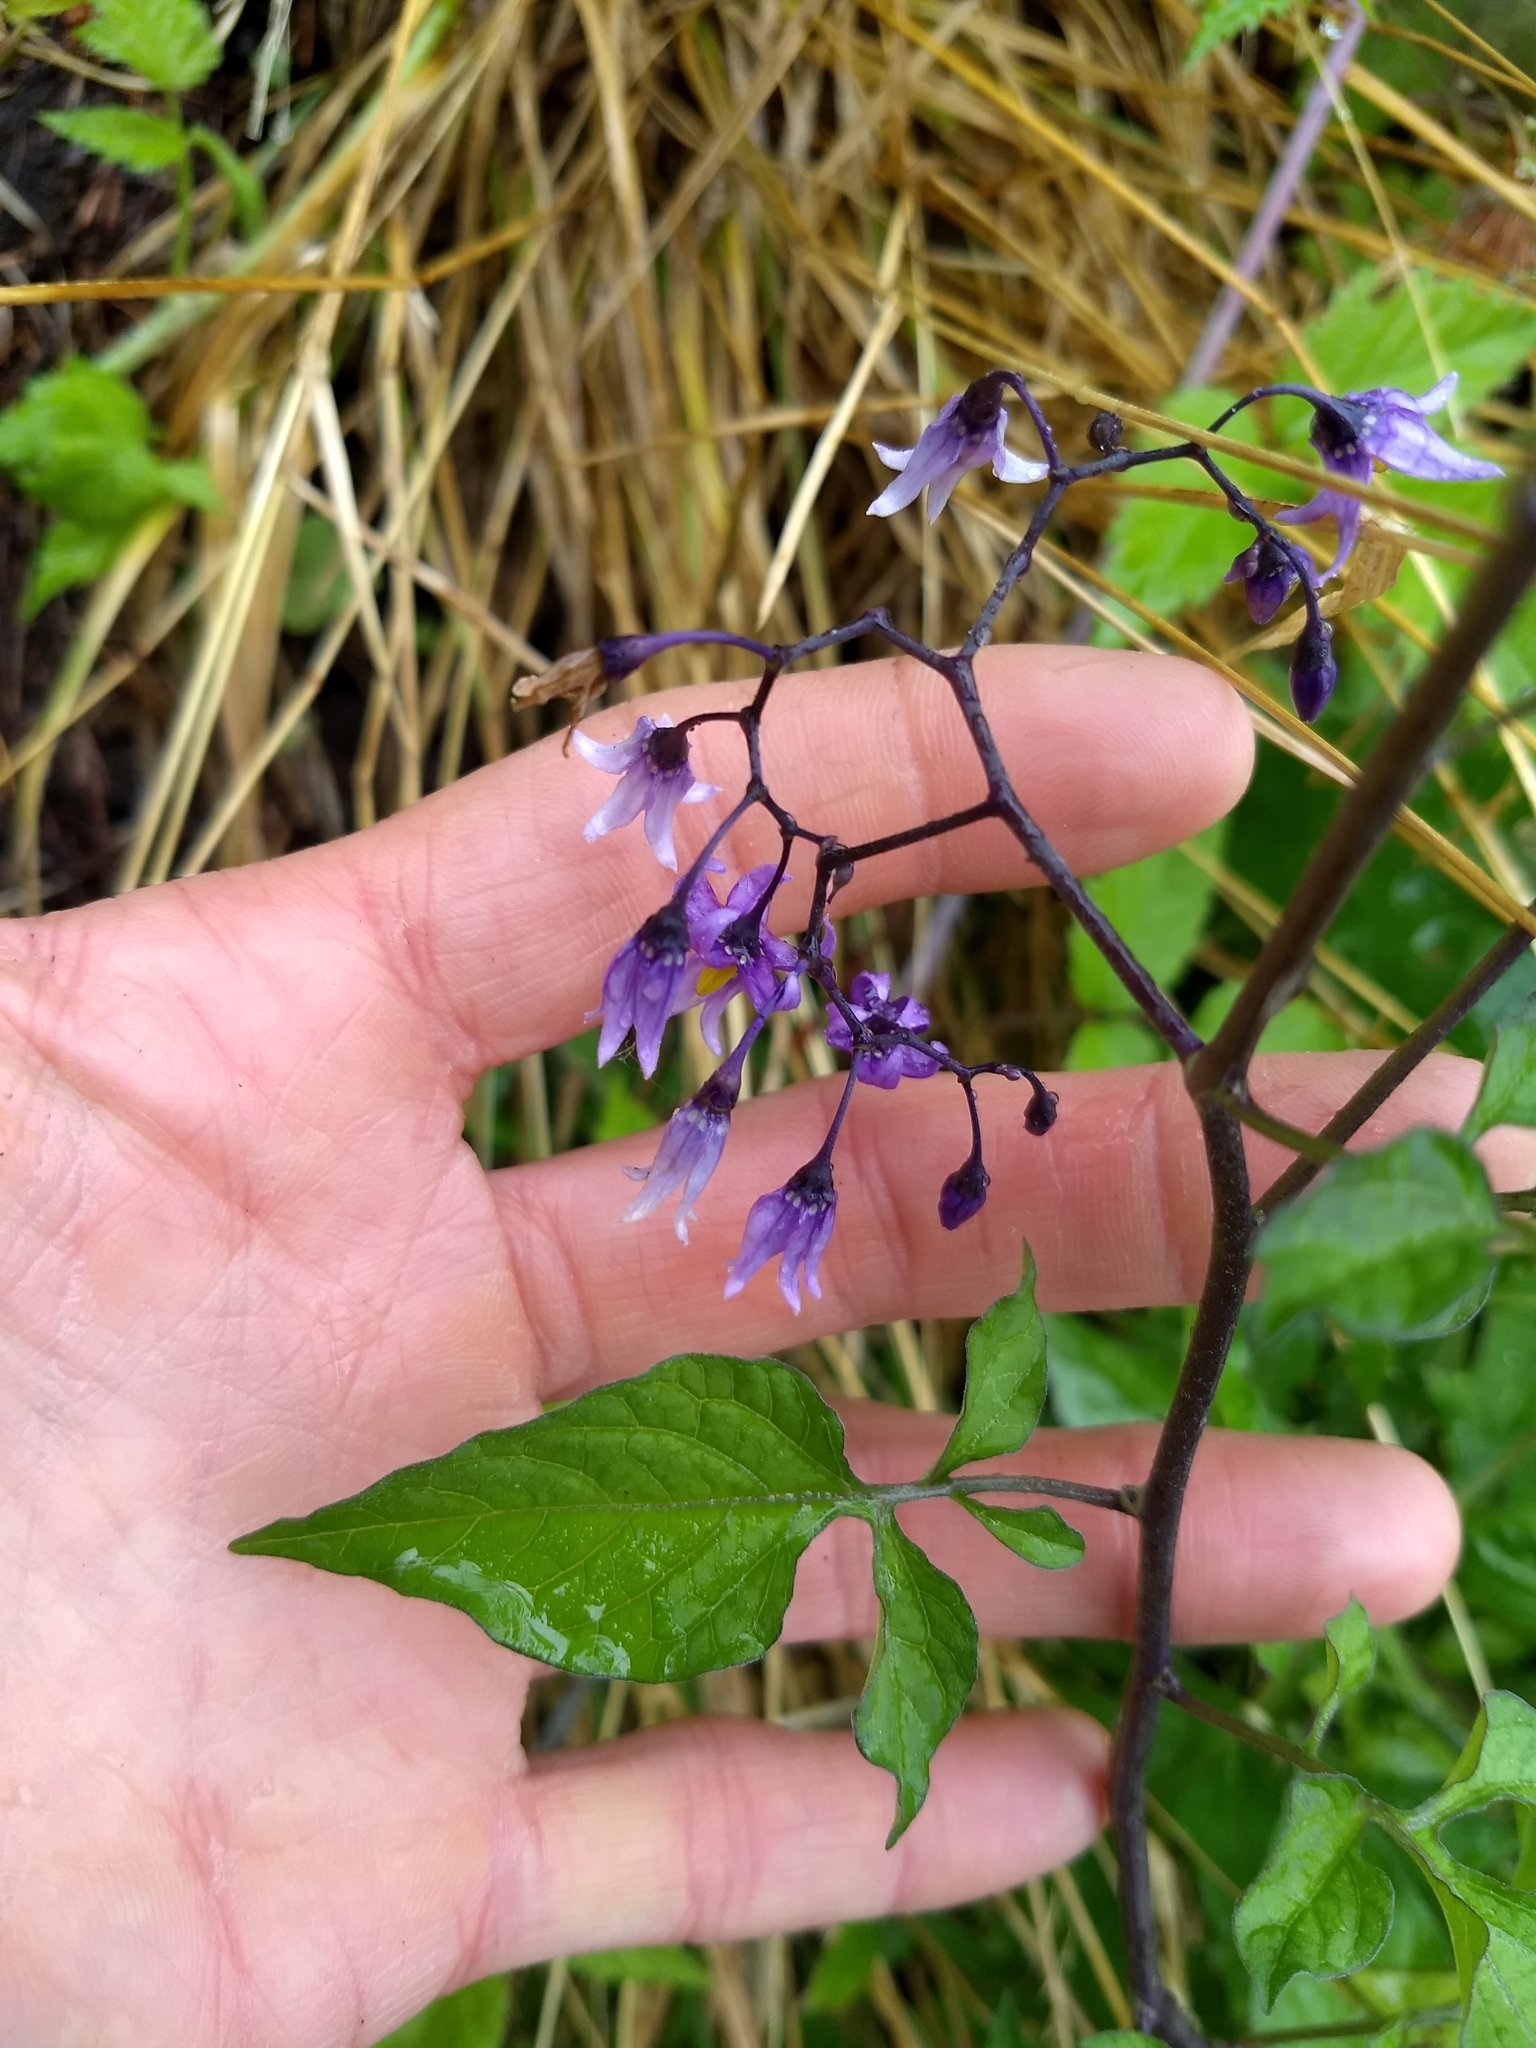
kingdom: Plantae
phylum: Tracheophyta
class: Magnoliopsida
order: Solanales
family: Solanaceae
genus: Solanum
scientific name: Solanum dulcamara
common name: Climbing nightshade
